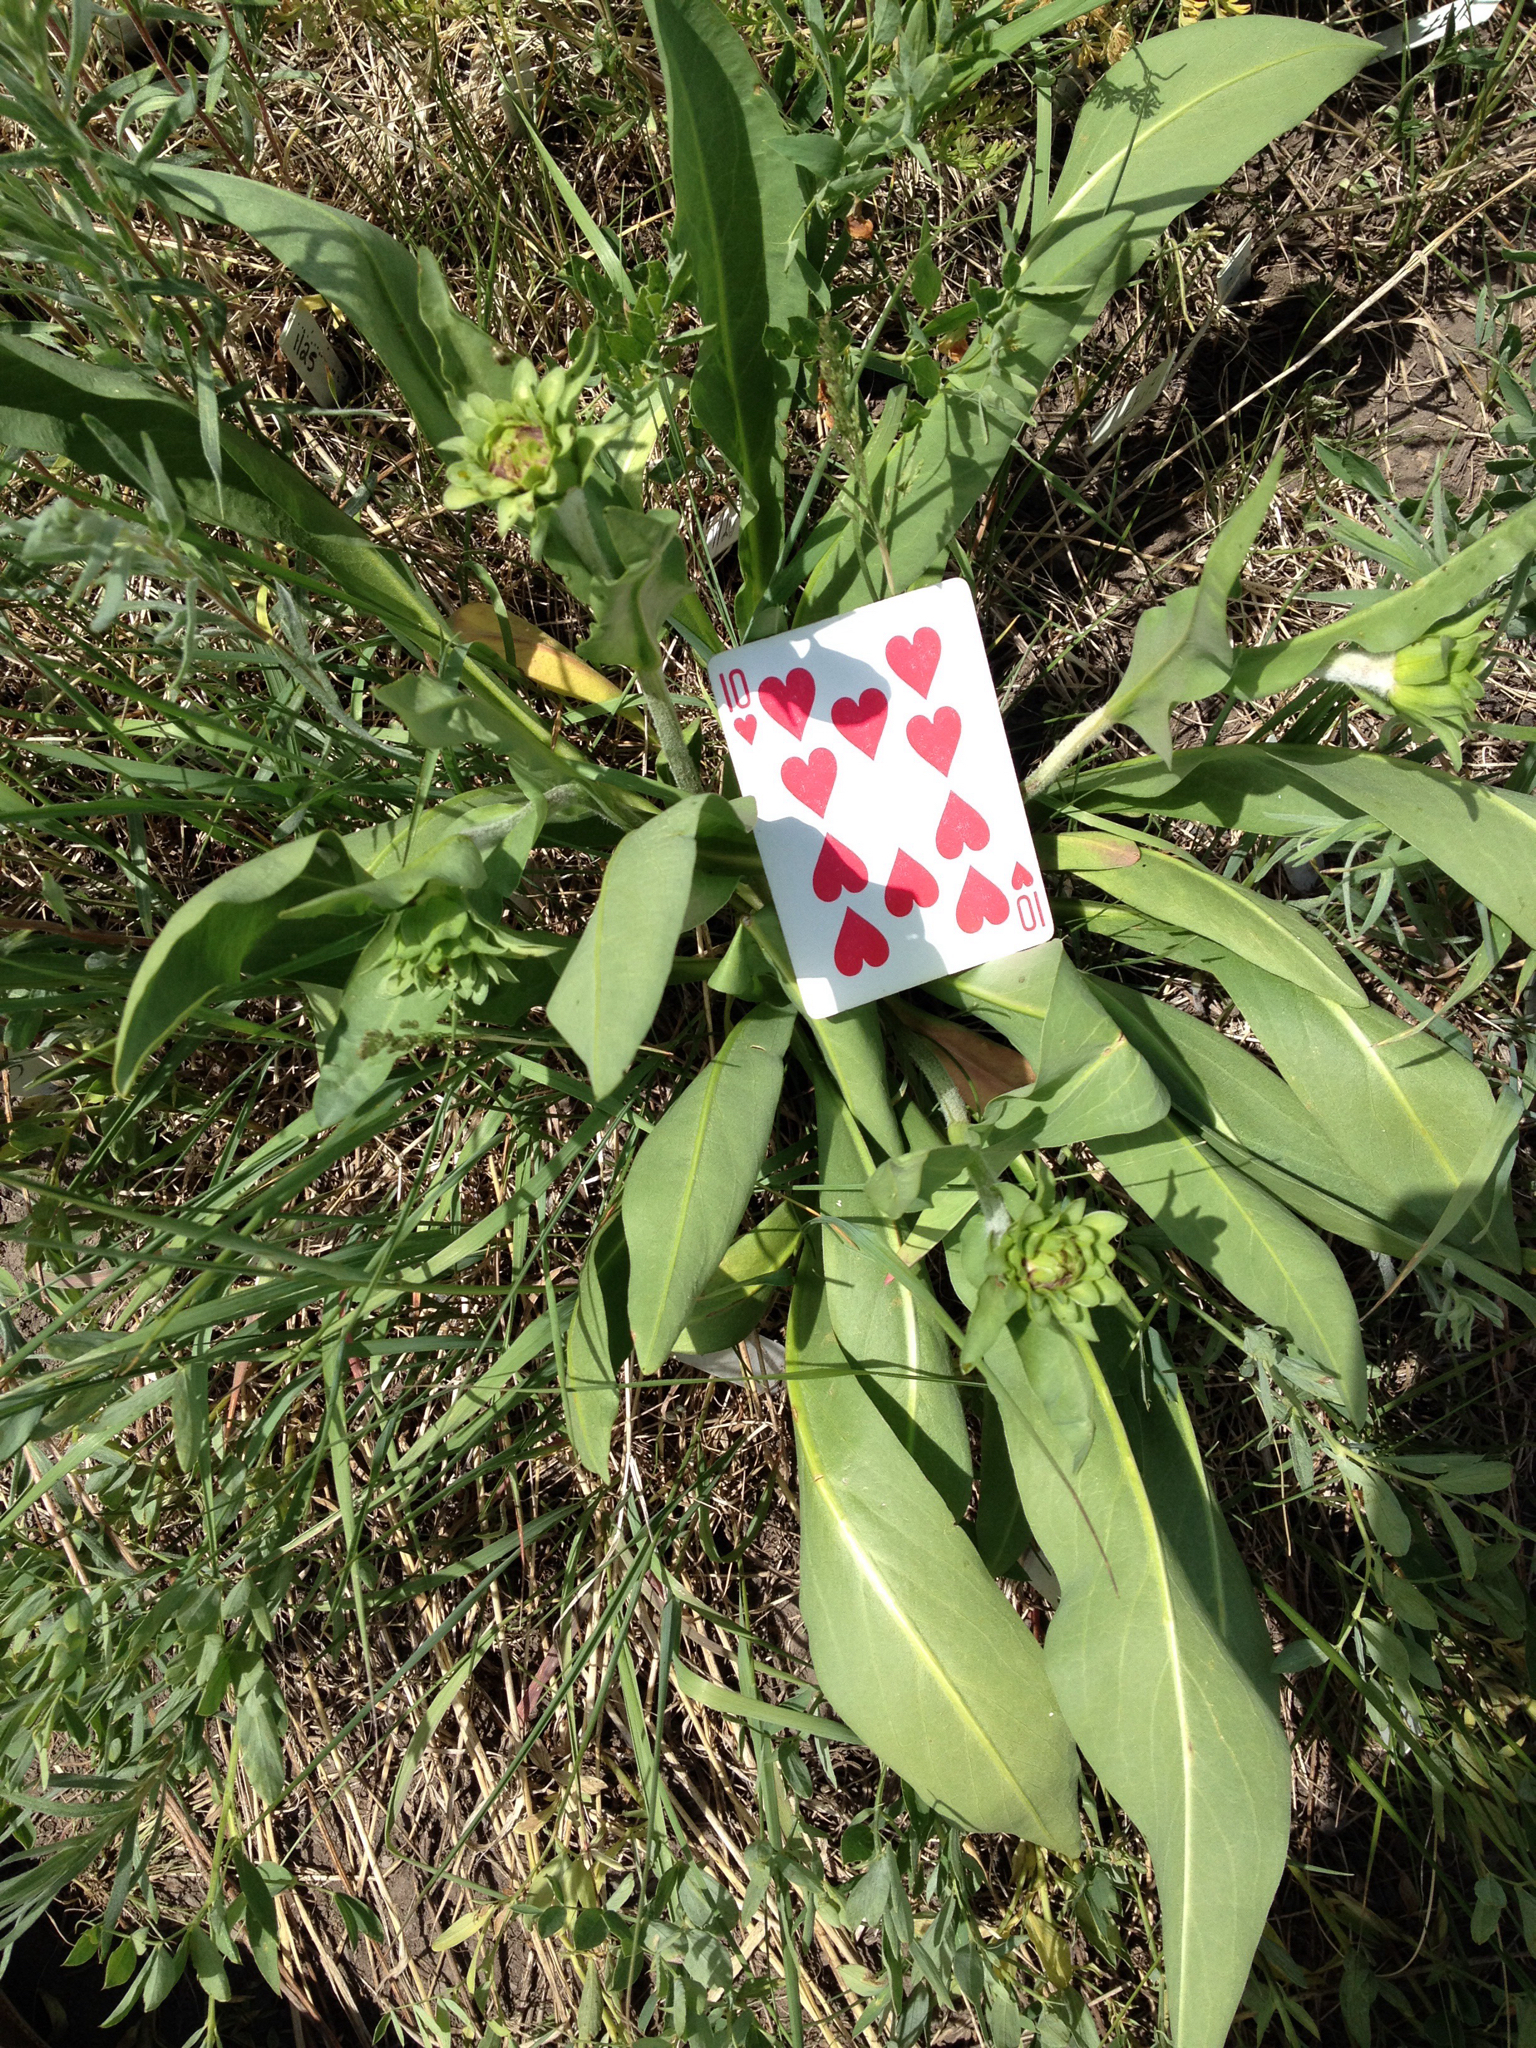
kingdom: Plantae
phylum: Tracheophyta
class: Magnoliopsida
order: Asterales
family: Asteraceae
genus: Pyrrocoma
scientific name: Pyrrocoma crocea
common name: Curly-head goldenweed
